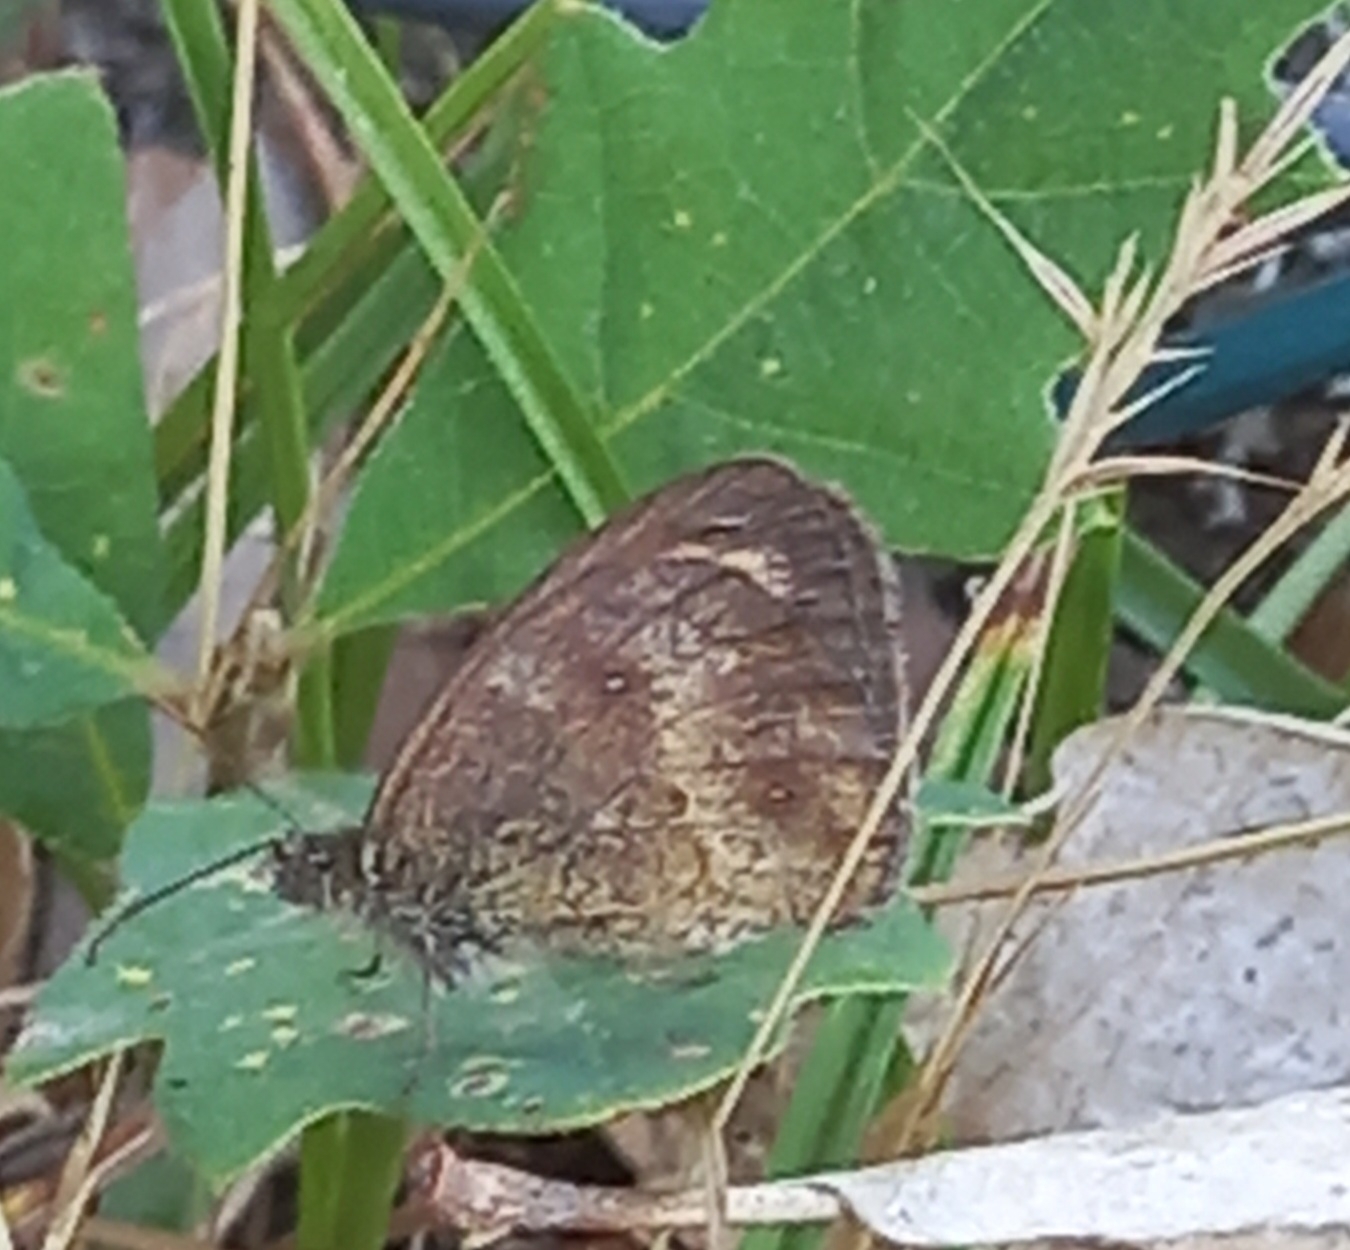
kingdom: Animalia
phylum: Arthropoda
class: Insecta
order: Lepidoptera
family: Nymphalidae
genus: Pyronia
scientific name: Pyronia tithonus
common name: Gatekeeper
